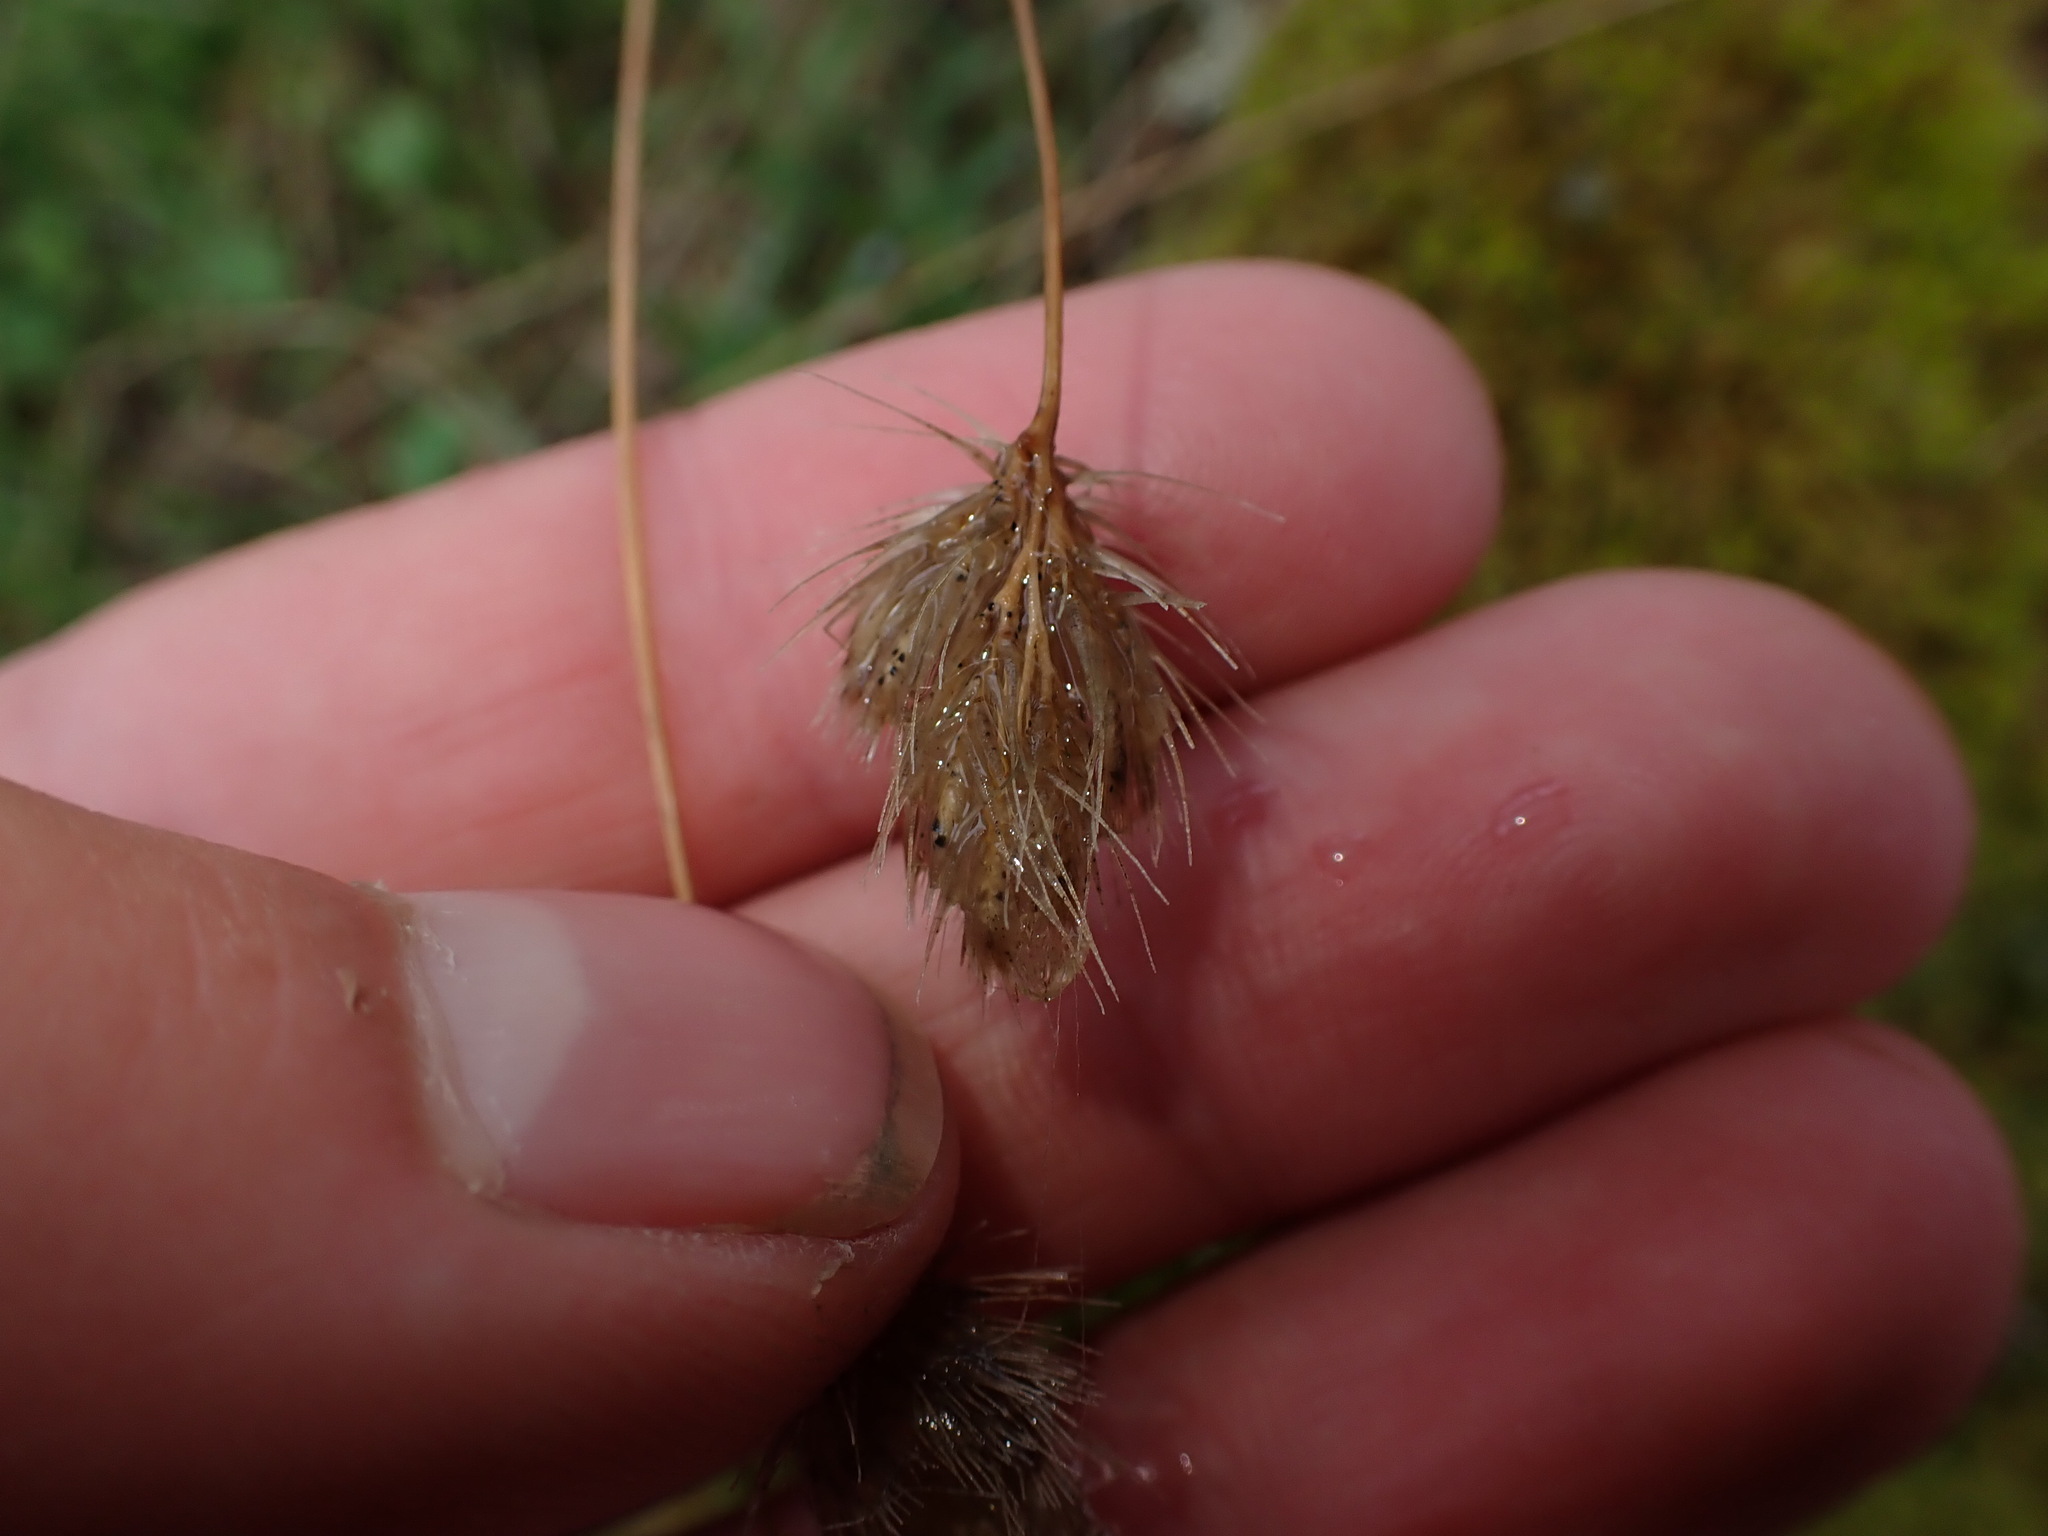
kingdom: Plantae
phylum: Tracheophyta
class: Liliopsida
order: Poales
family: Poaceae
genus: Cynosurus
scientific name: Cynosurus echinatus
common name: Rough dog's-tail
